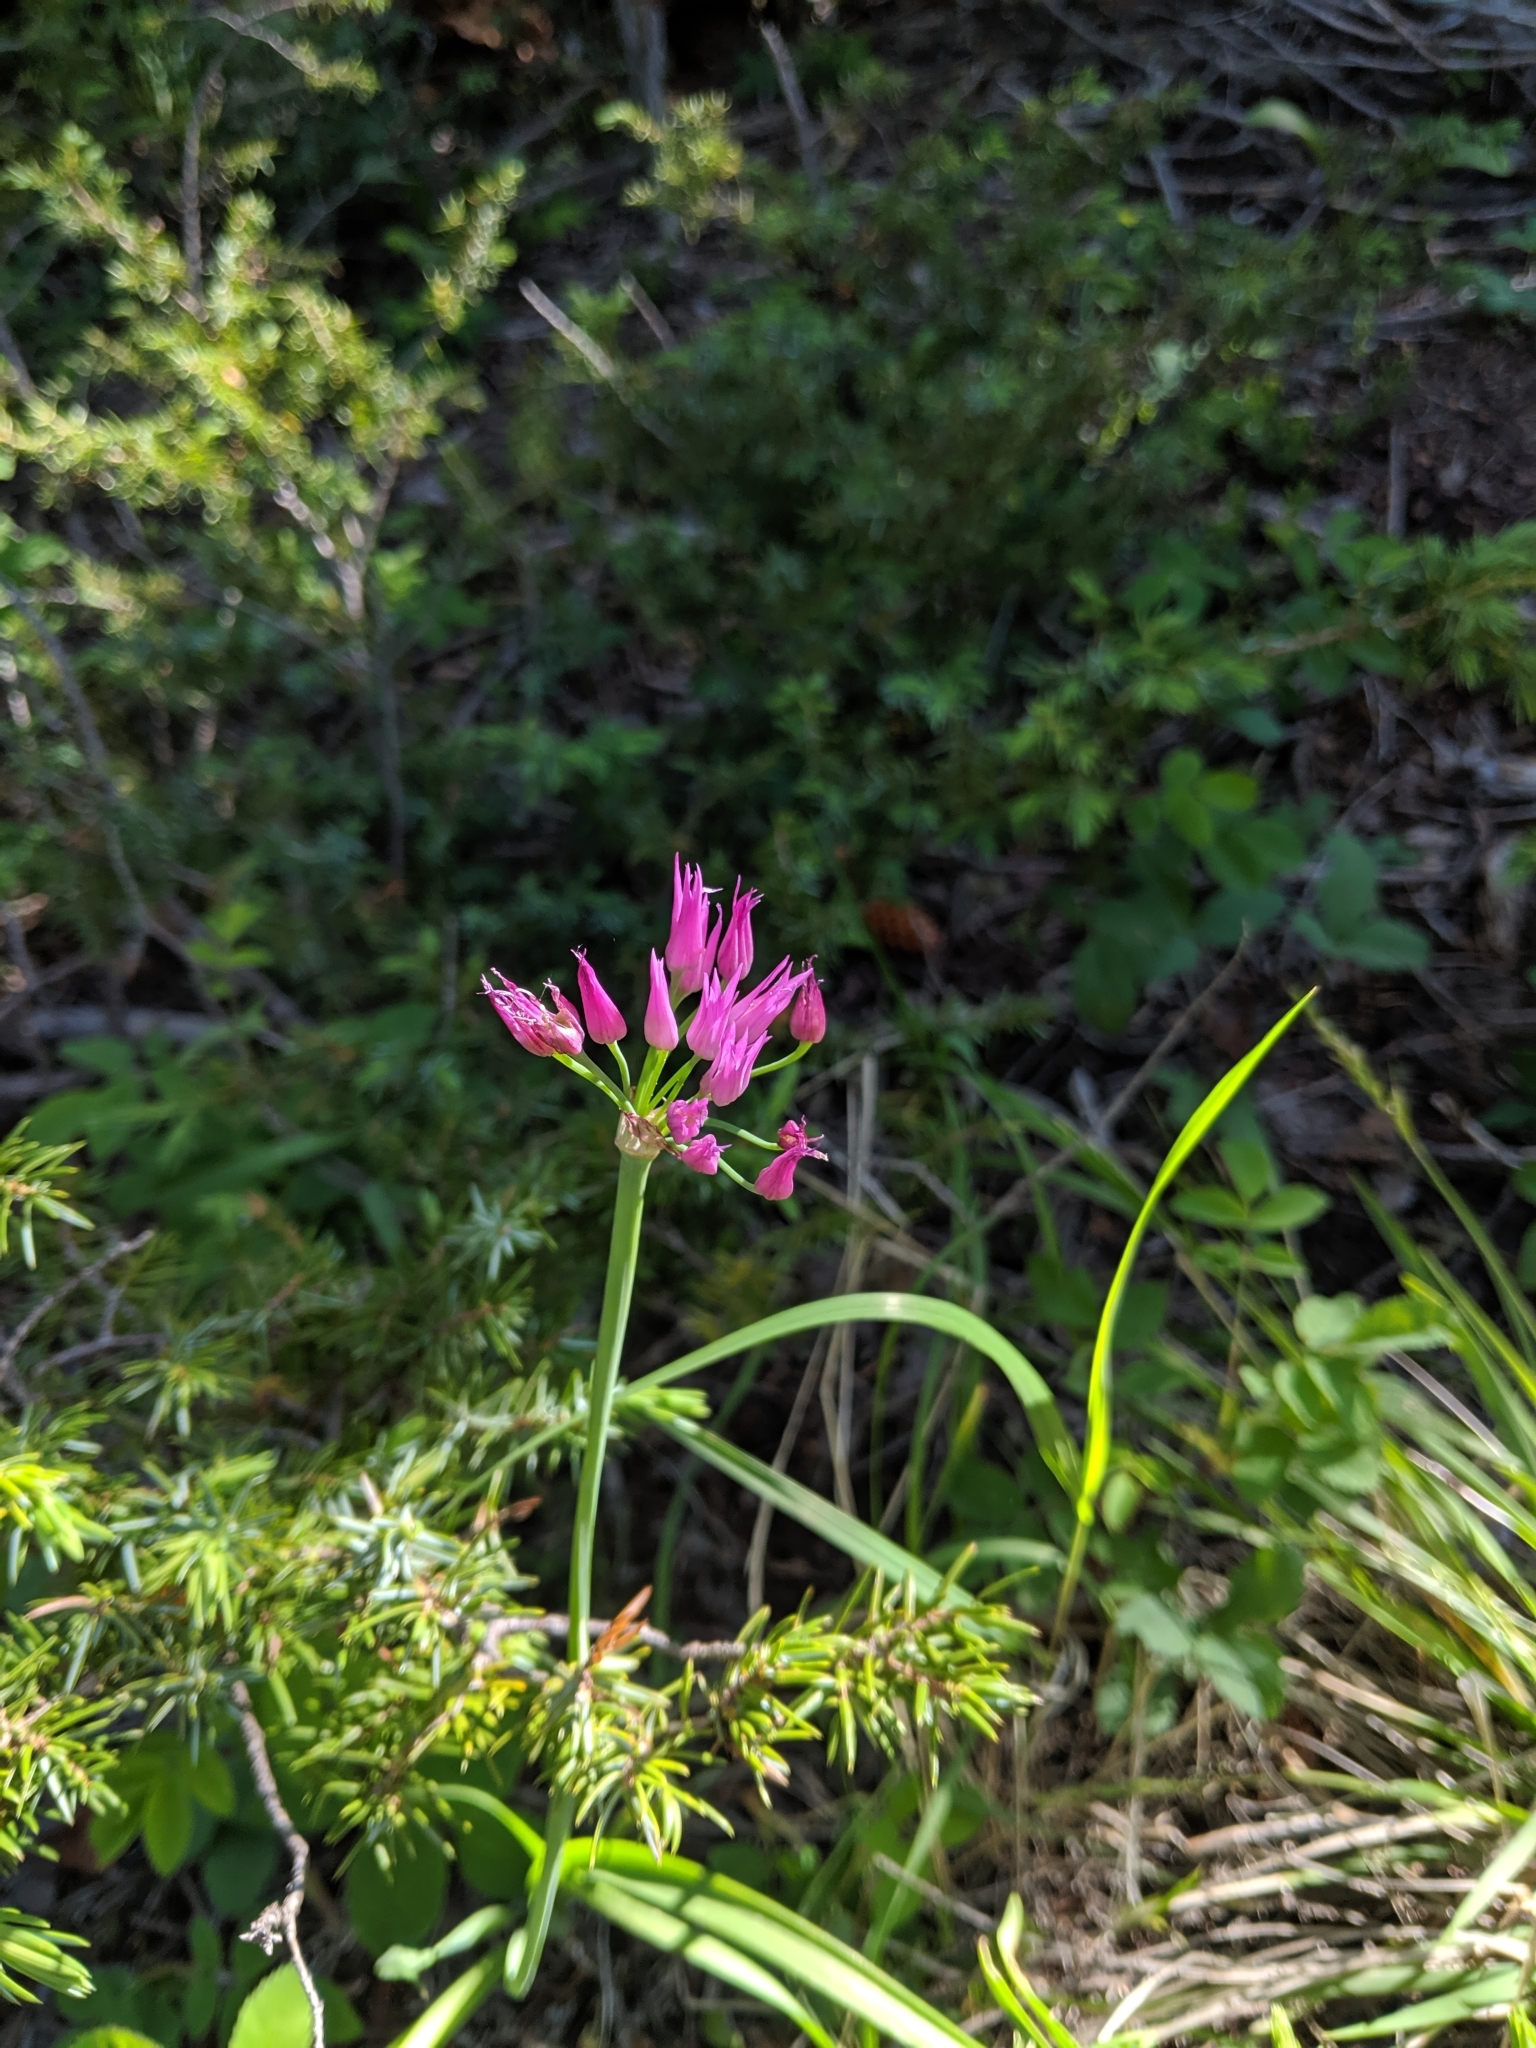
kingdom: Plantae
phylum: Tracheophyta
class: Liliopsida
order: Asparagales
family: Amaryllidaceae
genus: Allium
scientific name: Allium brevistylum
